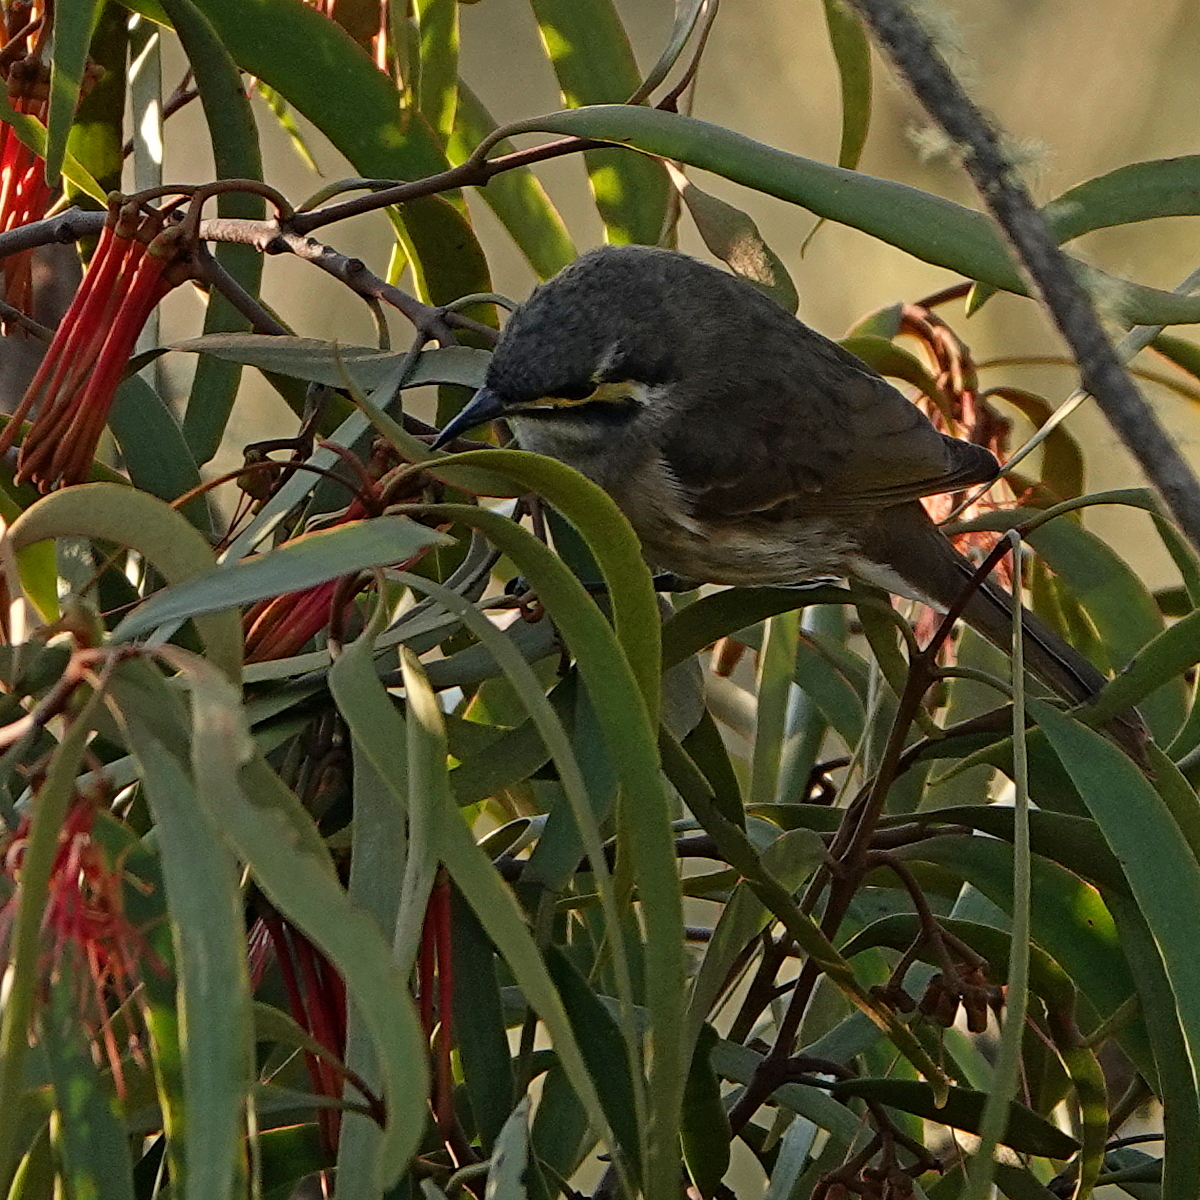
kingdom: Animalia
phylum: Chordata
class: Aves
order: Passeriformes
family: Meliphagidae
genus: Caligavis
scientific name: Caligavis chrysops
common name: Yellow-faced honeyeater
